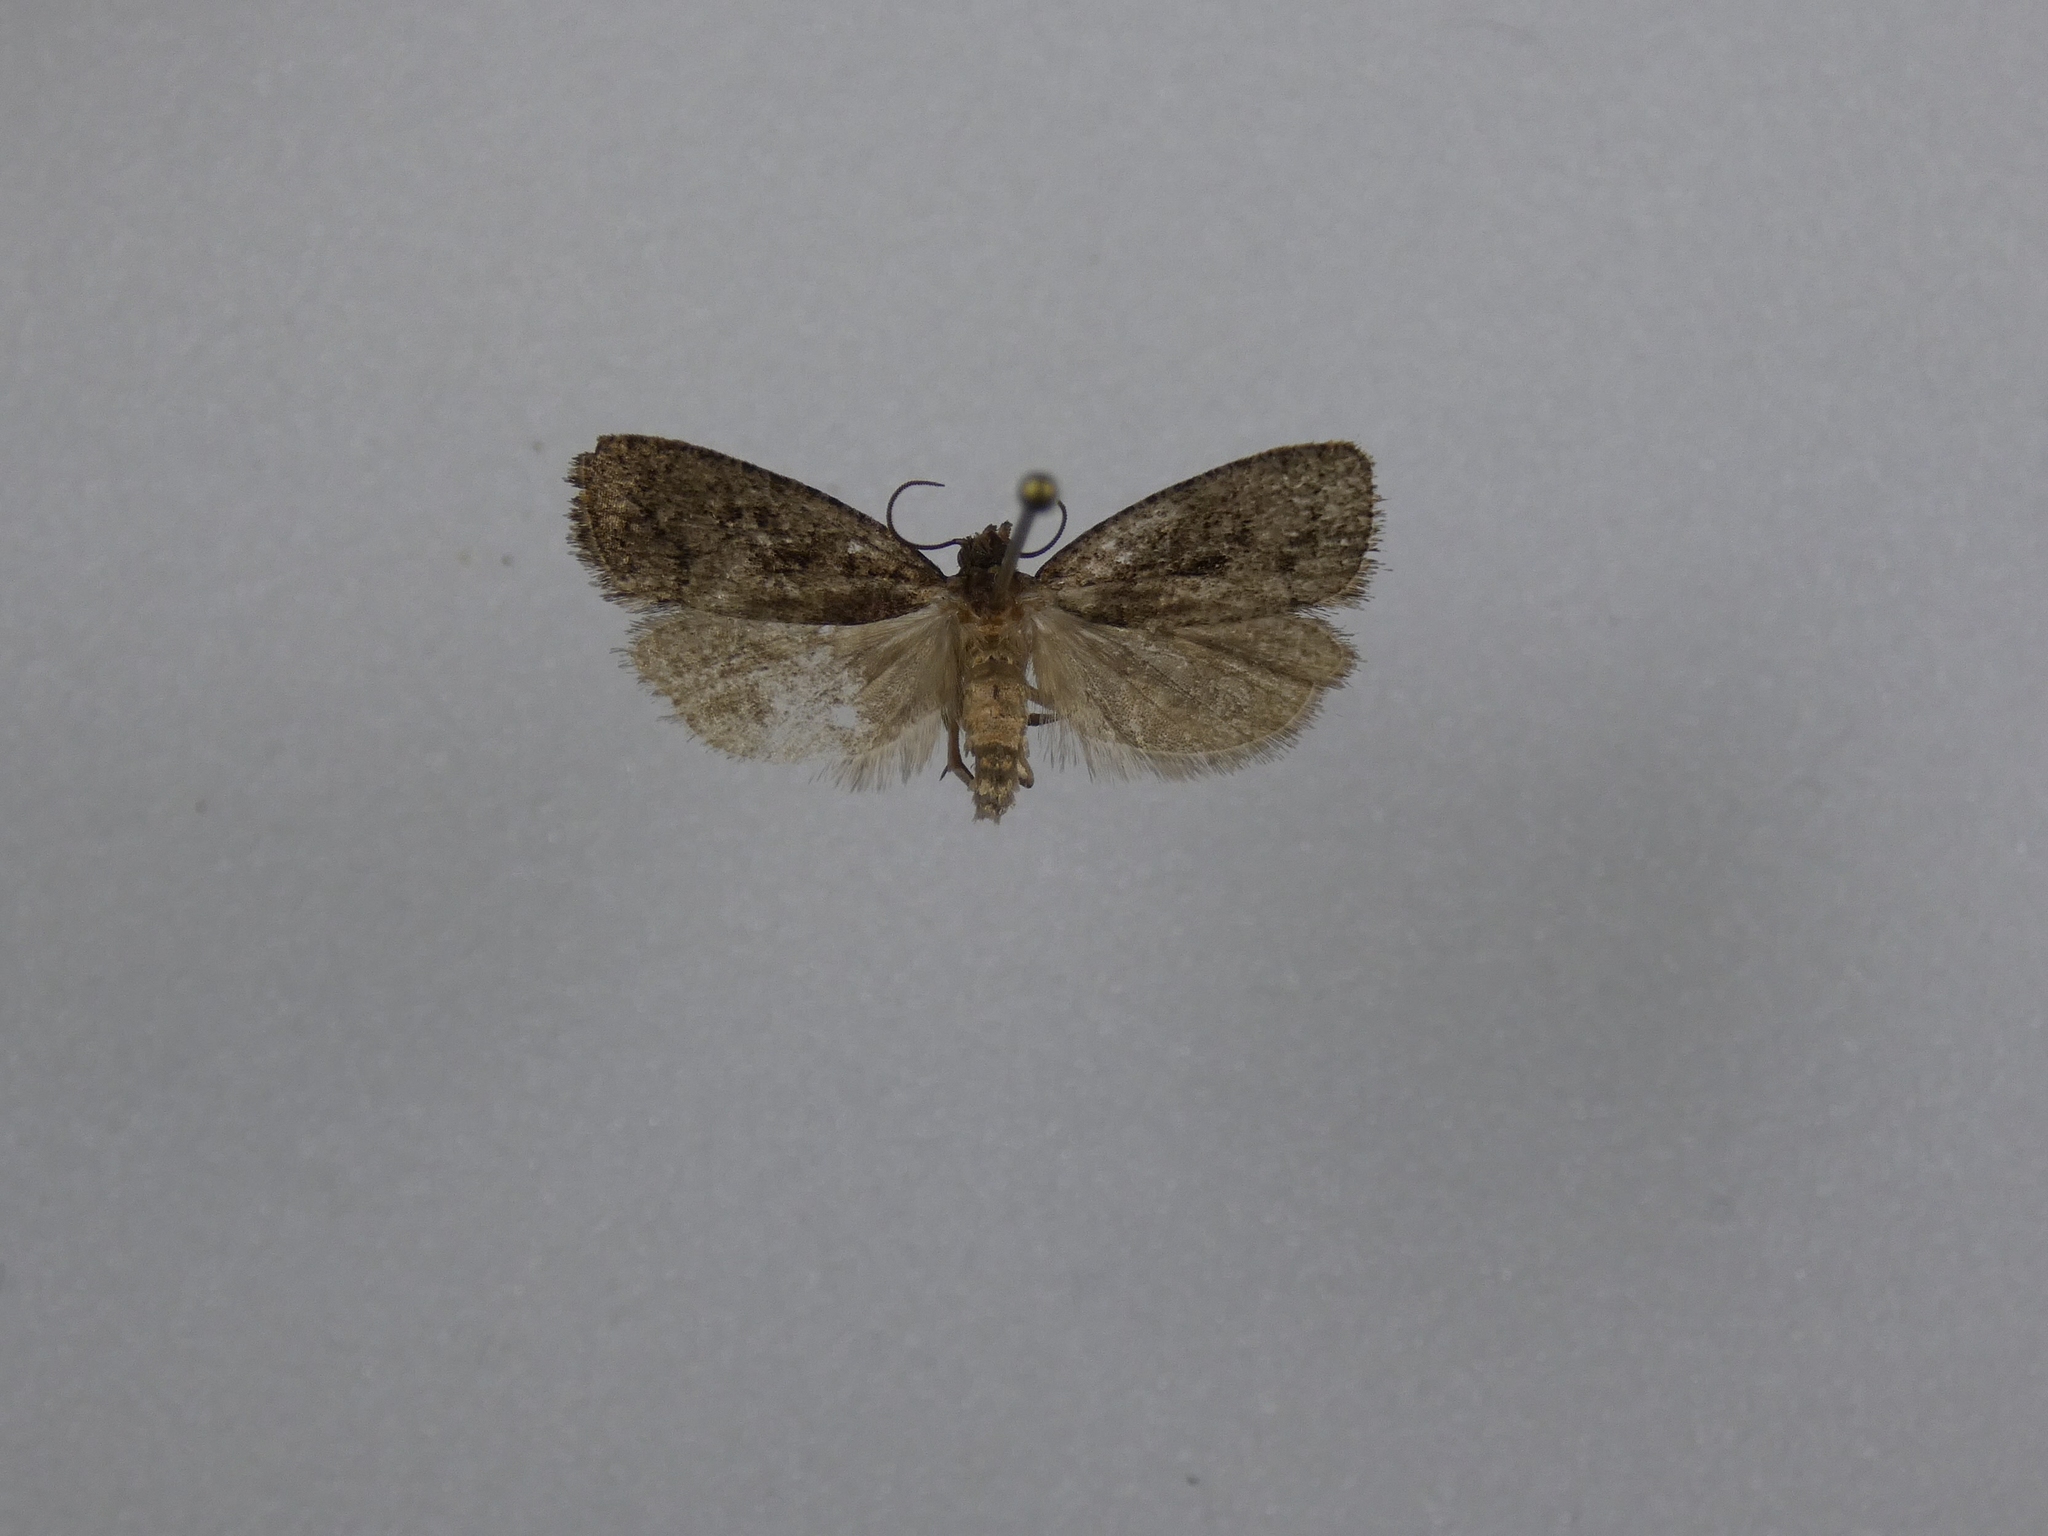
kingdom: Animalia
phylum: Arthropoda
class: Insecta
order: Lepidoptera
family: Tortricidae
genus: Cryptaspasma
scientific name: Cryptaspasma querula
